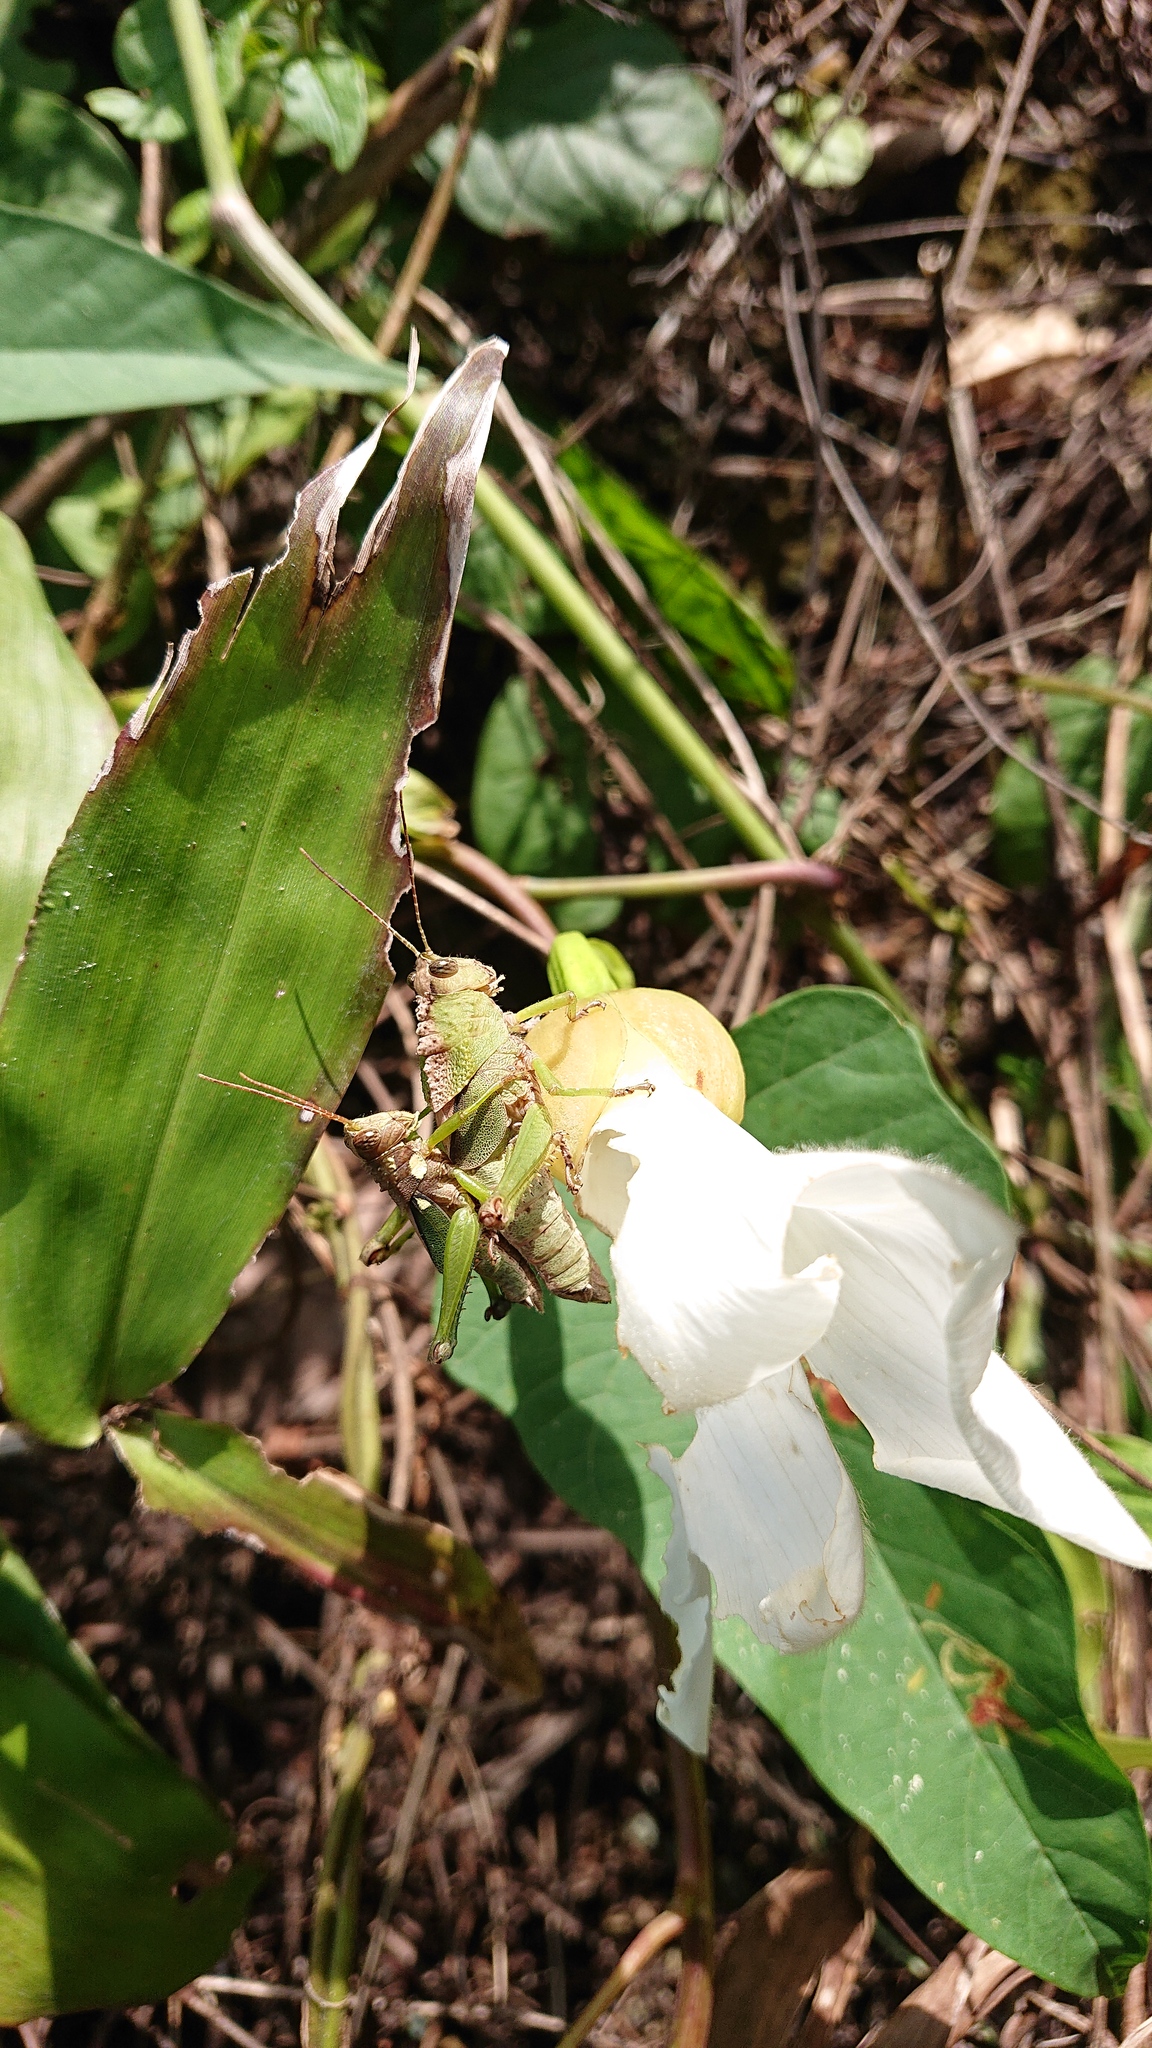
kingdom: Animalia
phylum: Arthropoda
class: Insecta
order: Orthoptera
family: Romaleidae
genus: Agriacris
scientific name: Agriacris aequatoriana
